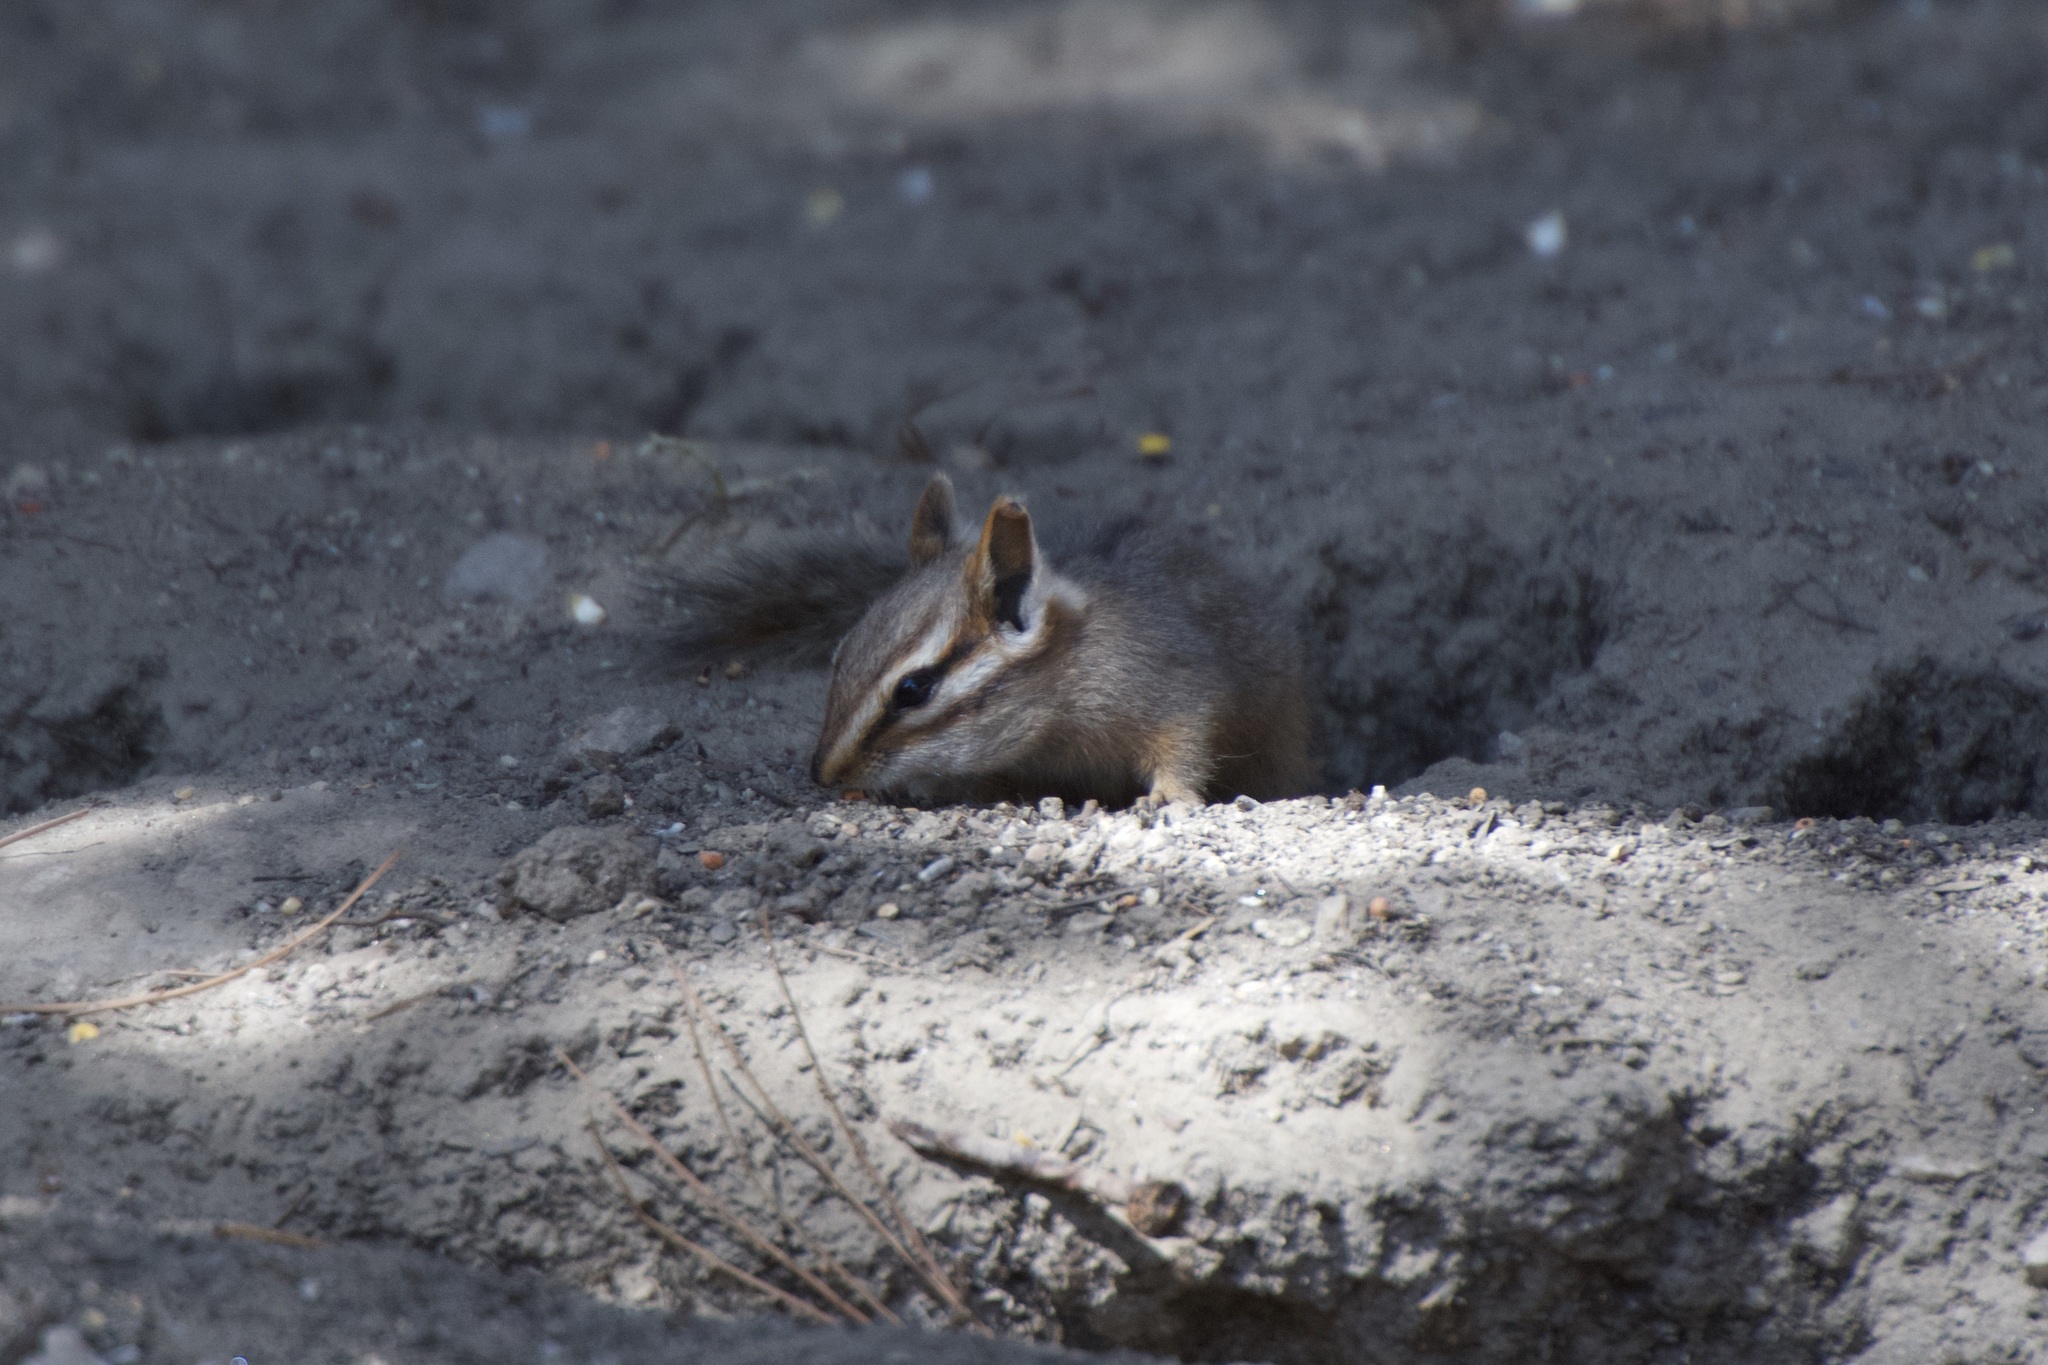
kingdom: Animalia
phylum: Chordata
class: Mammalia
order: Rodentia
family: Sciuridae
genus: Tamias
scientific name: Tamias dorsalis
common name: Cliff chipmunk
